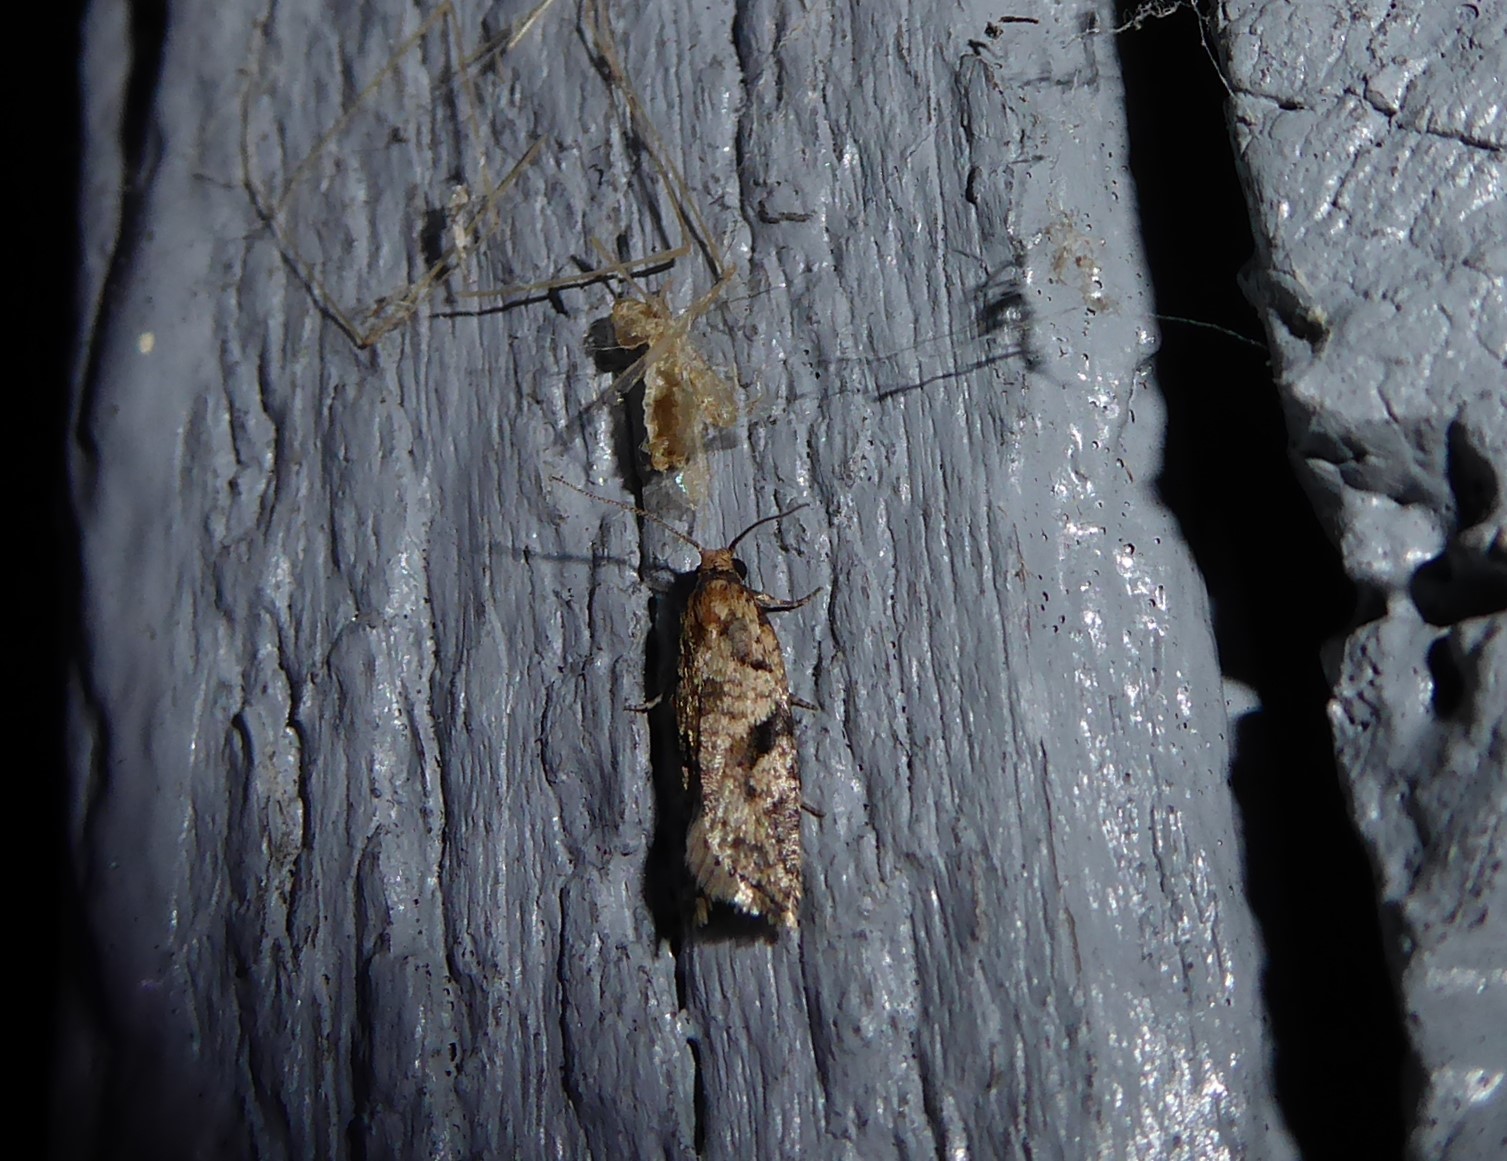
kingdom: Animalia
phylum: Arthropoda
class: Insecta
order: Lepidoptera
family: Tortricidae
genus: Capua
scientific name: Capua semiferana
